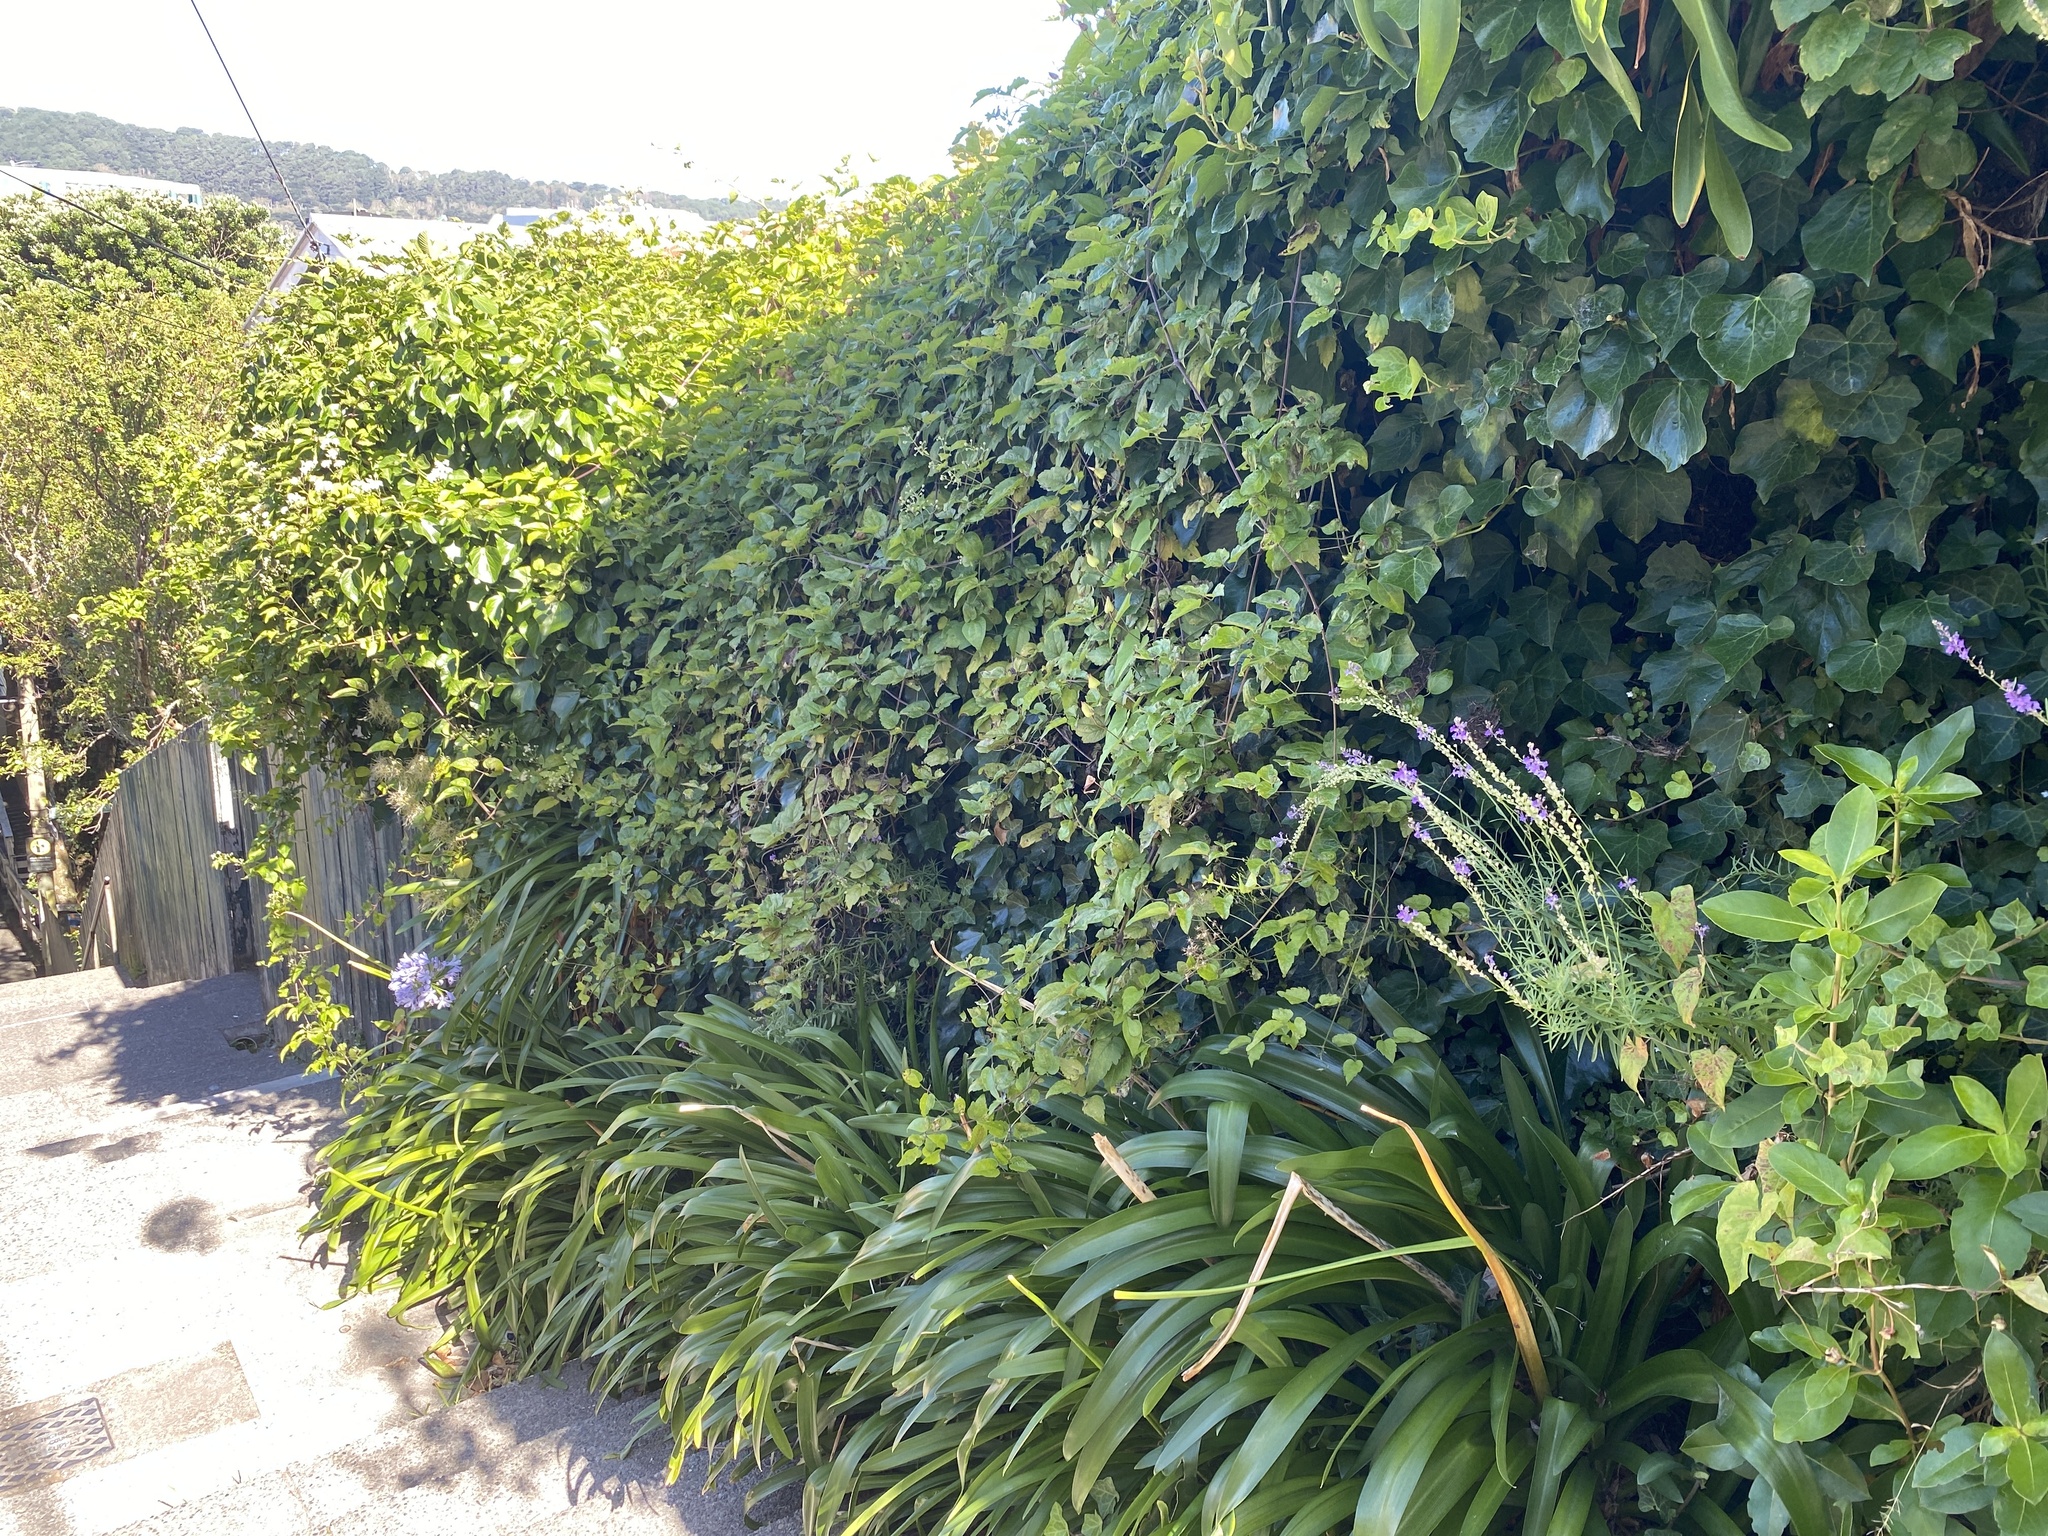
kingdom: Plantae
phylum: Tracheophyta
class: Magnoliopsida
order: Ranunculales
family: Ranunculaceae
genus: Clematis
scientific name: Clematis vitalba
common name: Evergreen clematis
